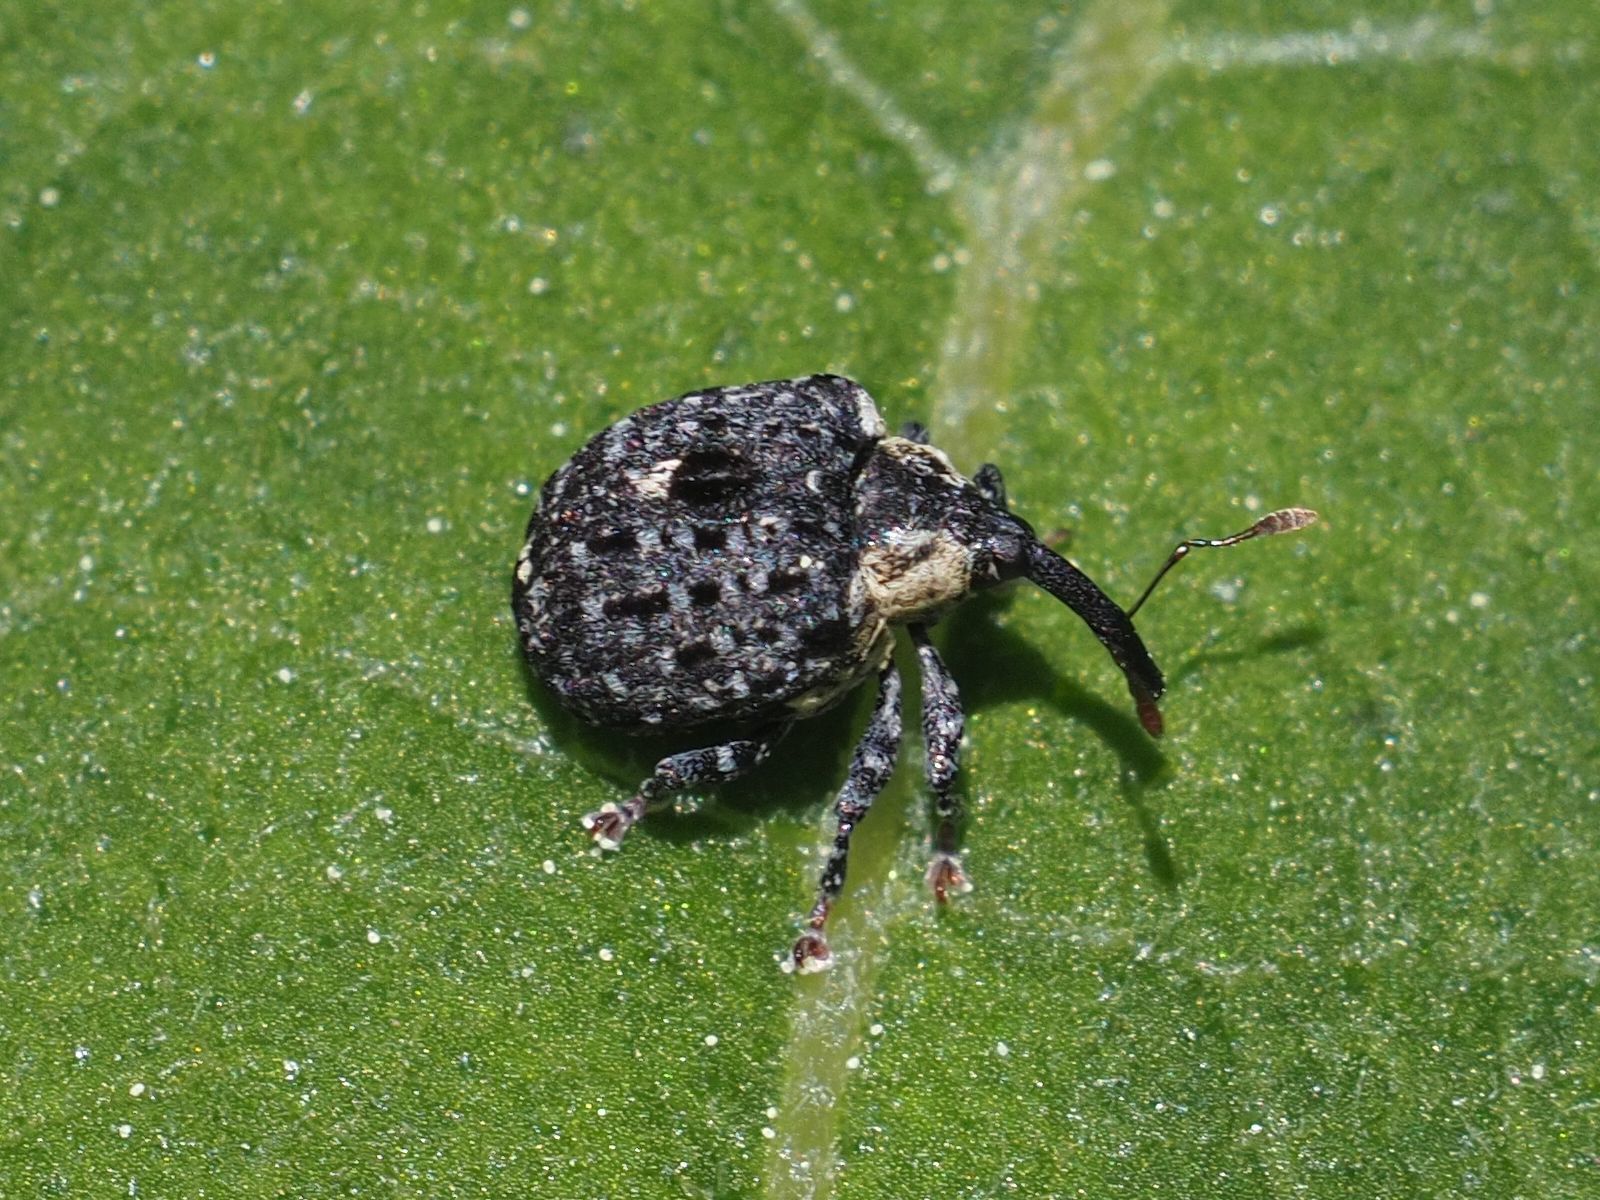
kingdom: Animalia
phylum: Arthropoda
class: Insecta
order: Coleoptera
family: Curculionidae
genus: Cionus
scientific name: Cionus tuberculosus
